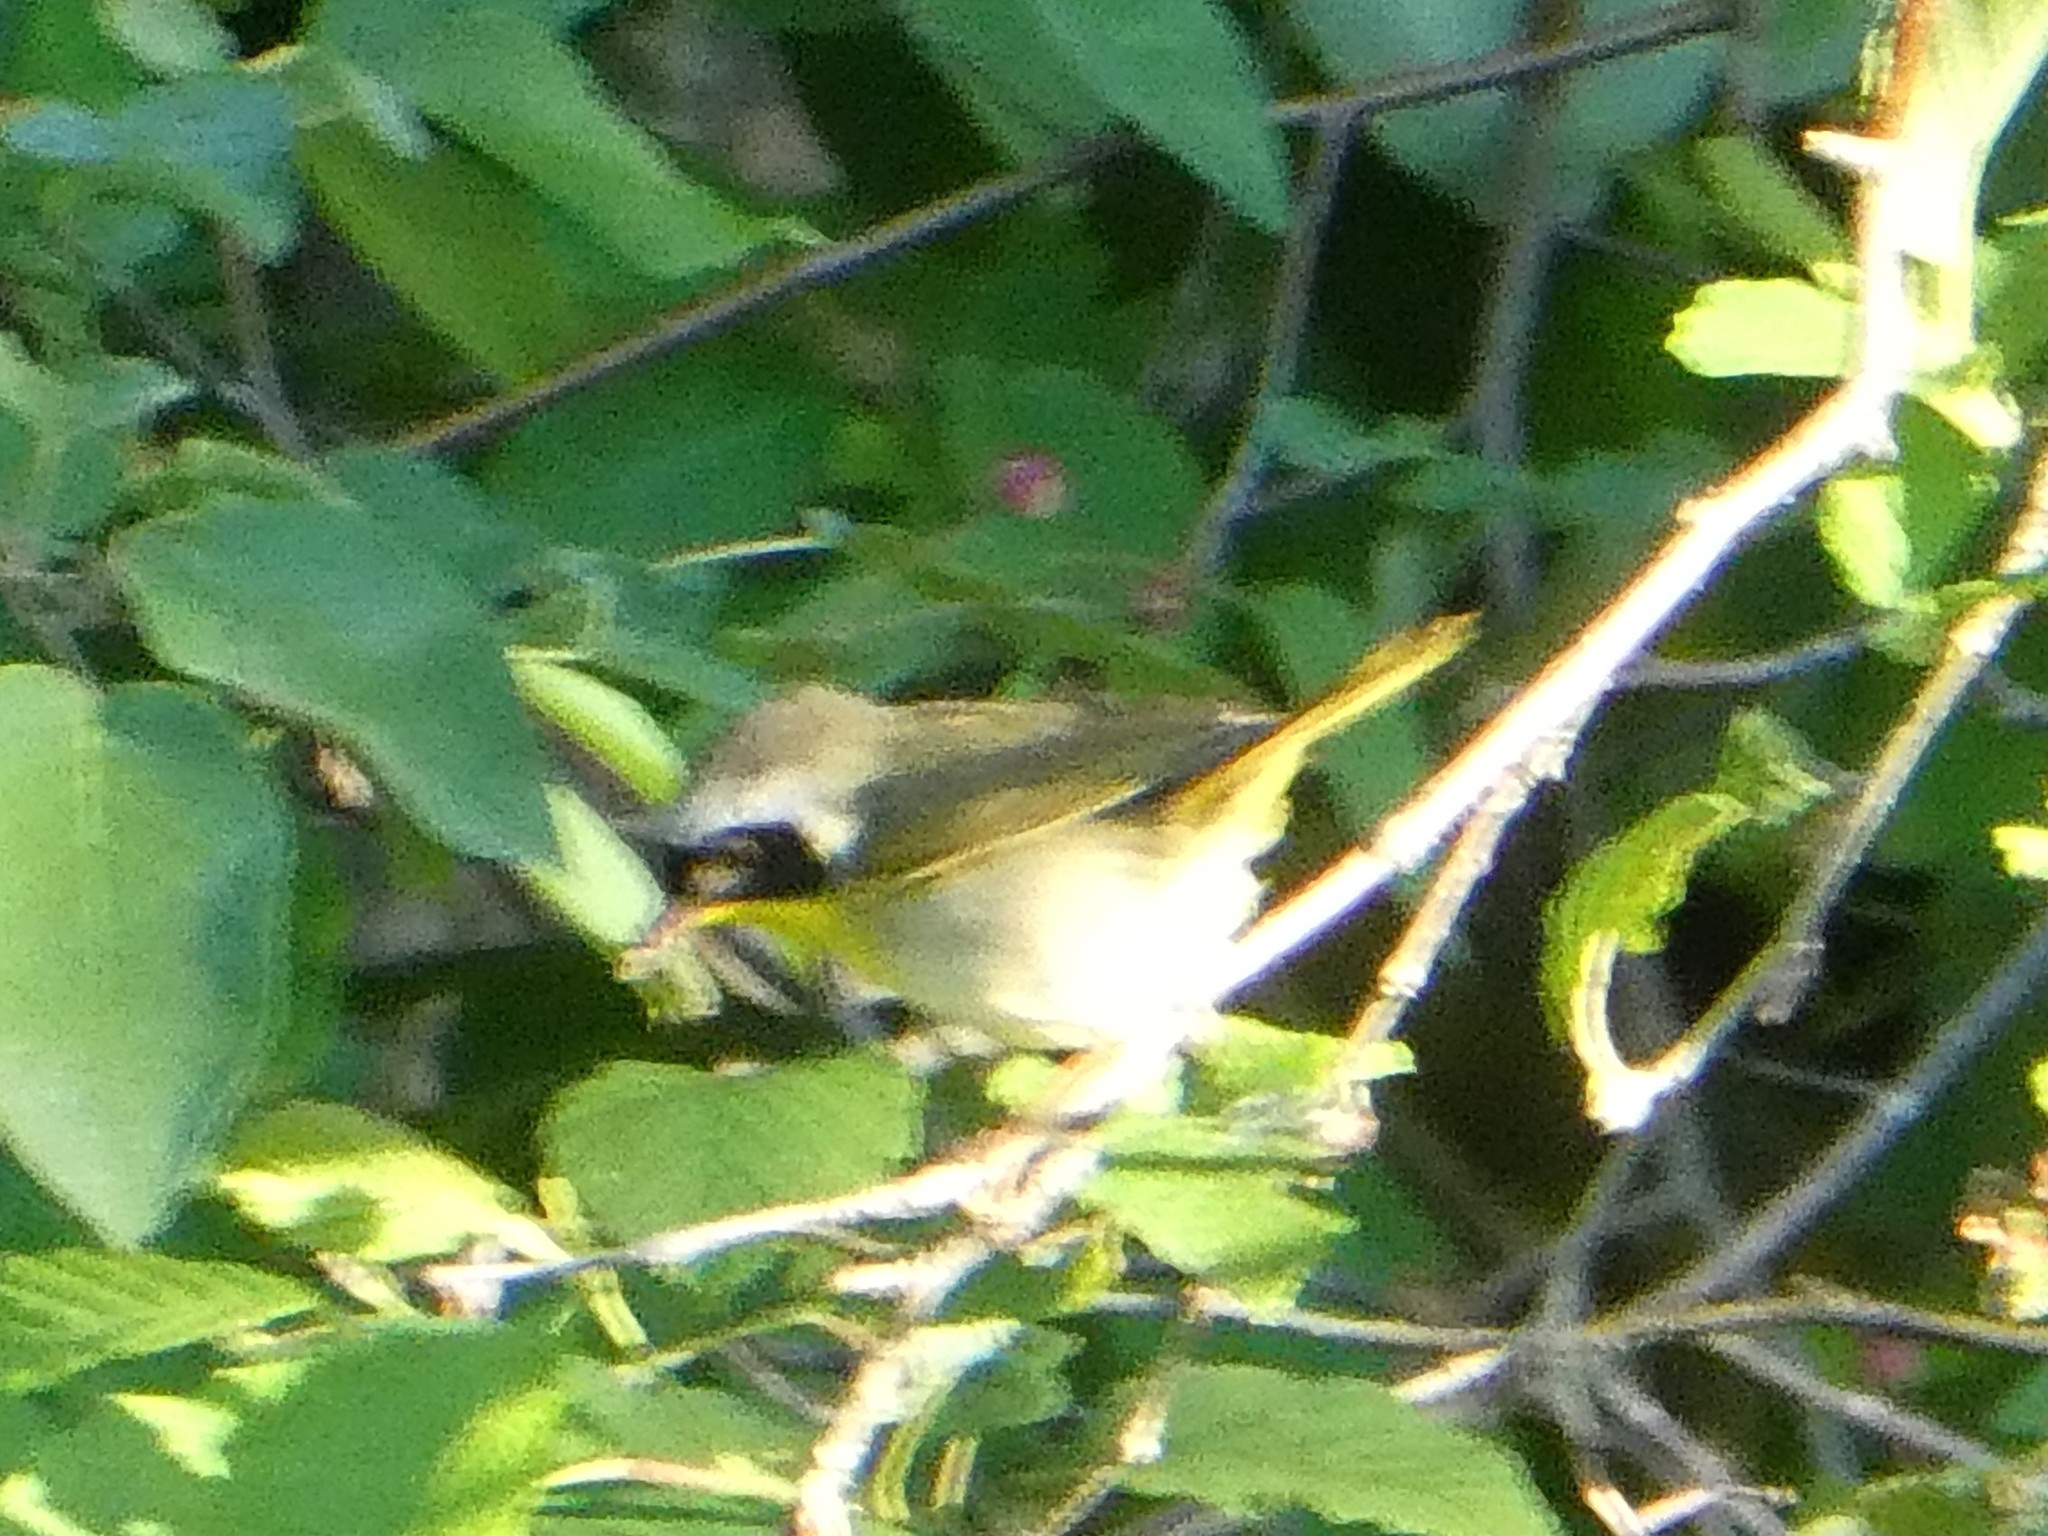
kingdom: Animalia
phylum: Chordata
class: Aves
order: Passeriformes
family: Parulidae
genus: Geothlypis
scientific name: Geothlypis trichas
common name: Common yellowthroat
